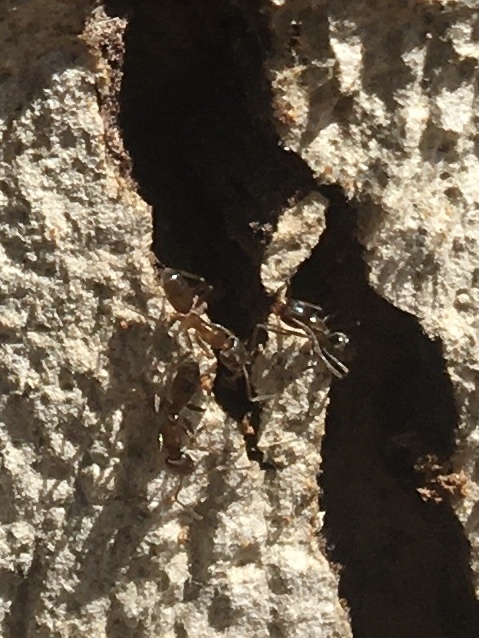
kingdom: Animalia
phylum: Arthropoda
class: Insecta
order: Hymenoptera
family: Formicidae
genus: Linepithema
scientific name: Linepithema humile
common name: Argentine ant
